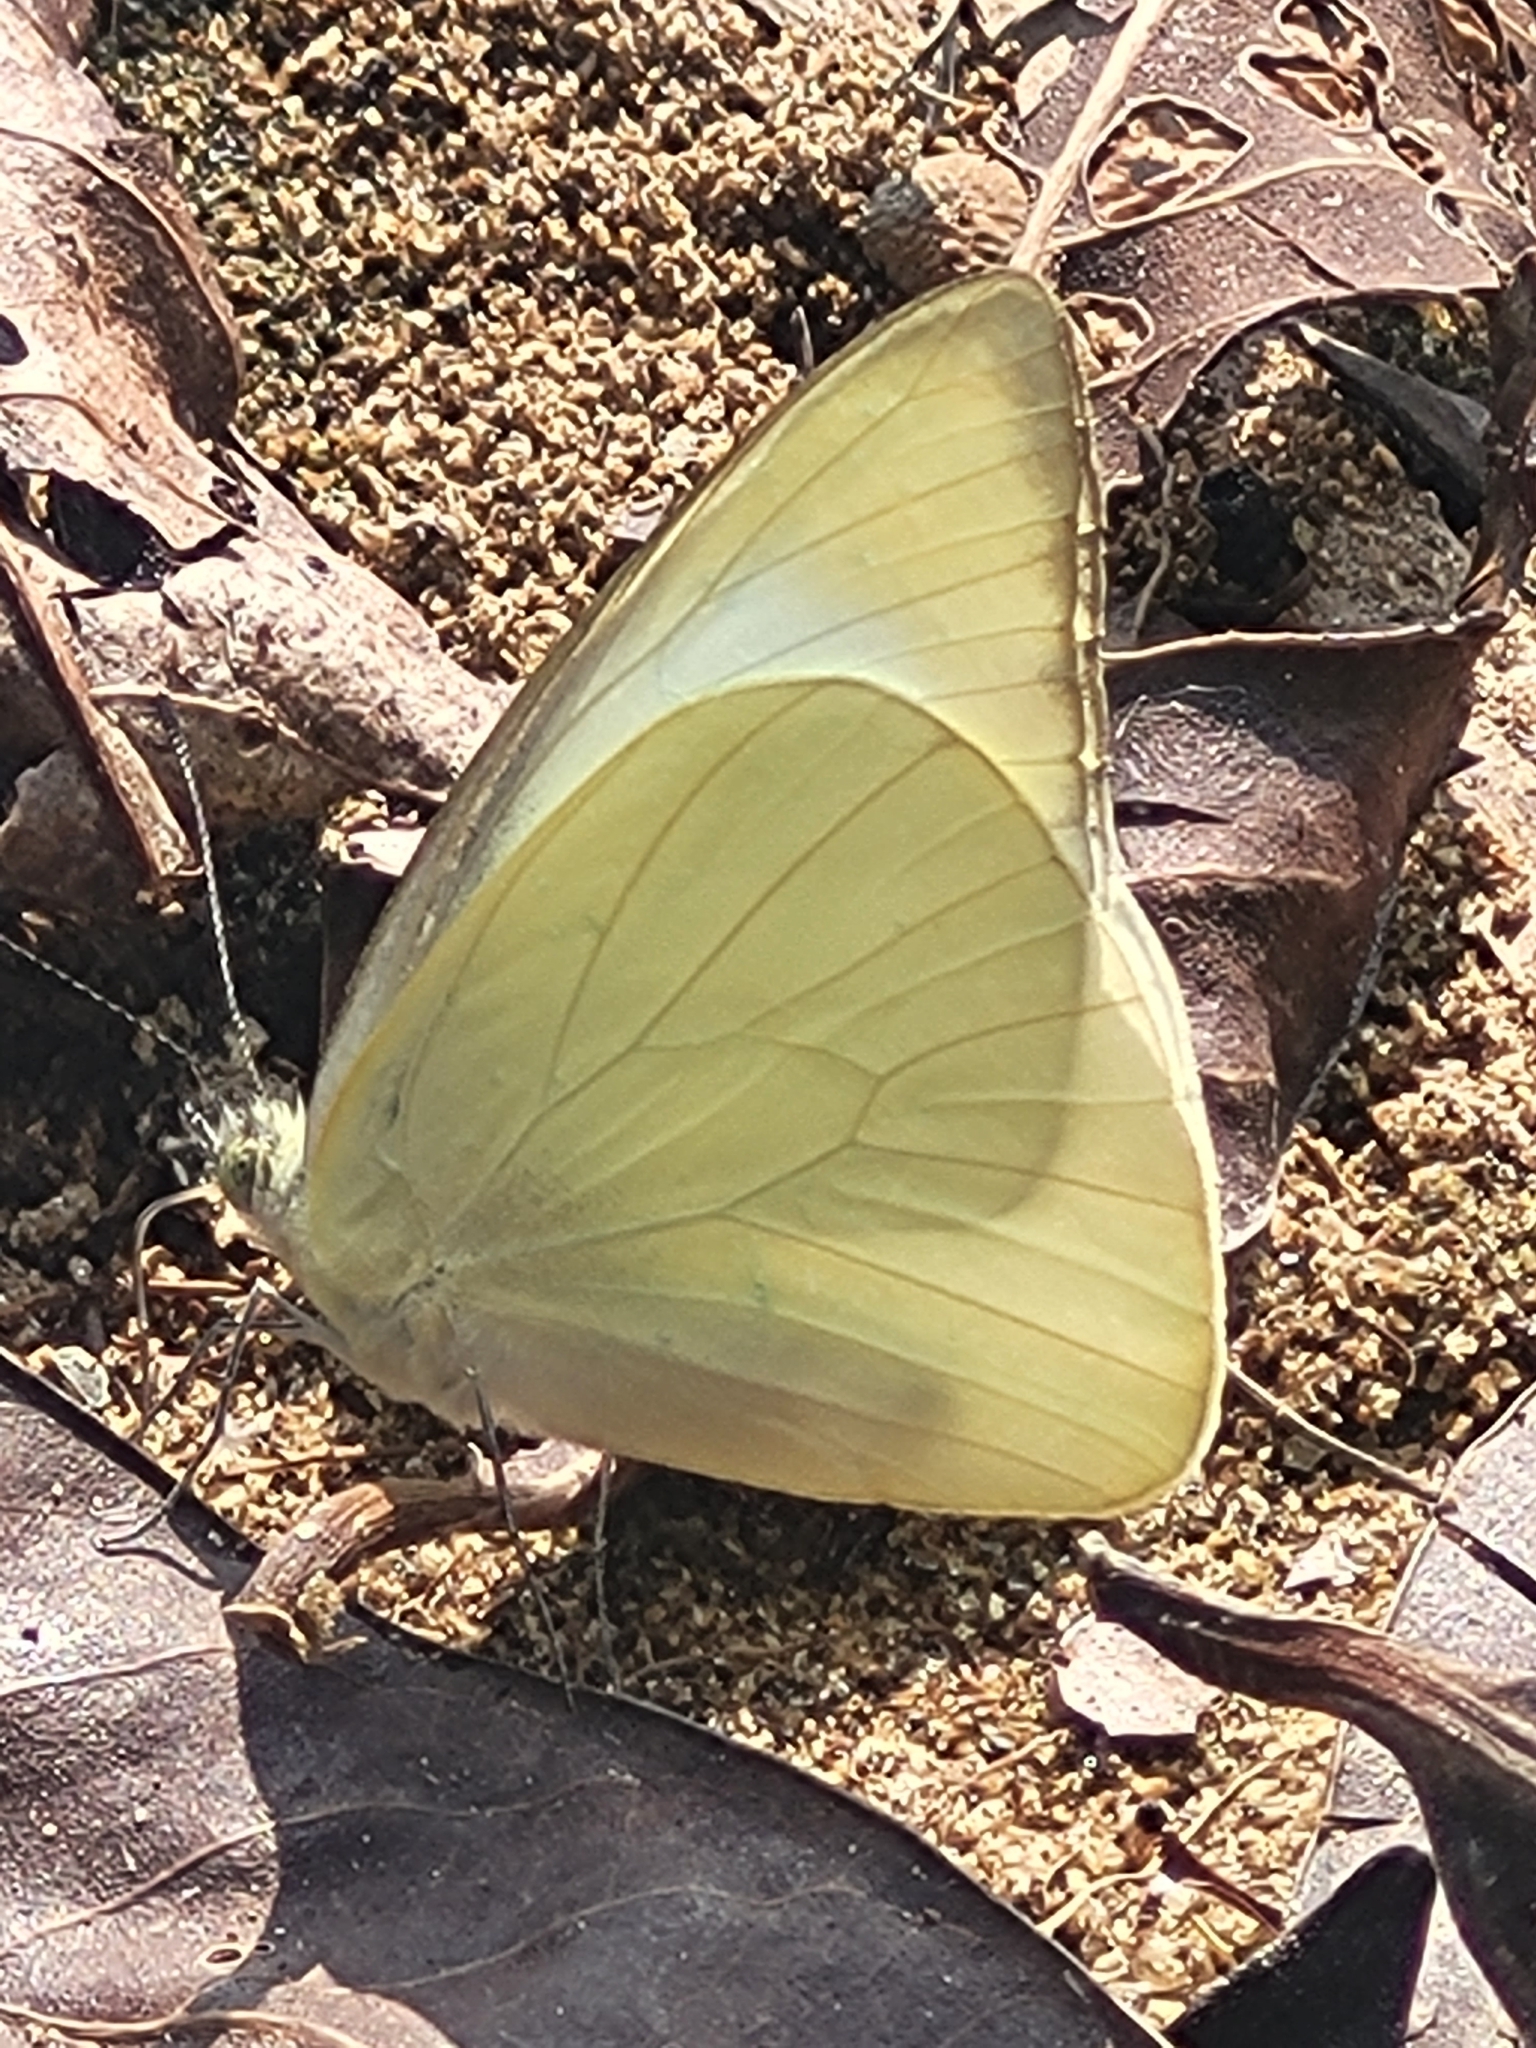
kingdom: Animalia
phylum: Arthropoda
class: Insecta
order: Lepidoptera
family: Pieridae
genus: Appias
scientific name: Appias albina
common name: Common albatross
